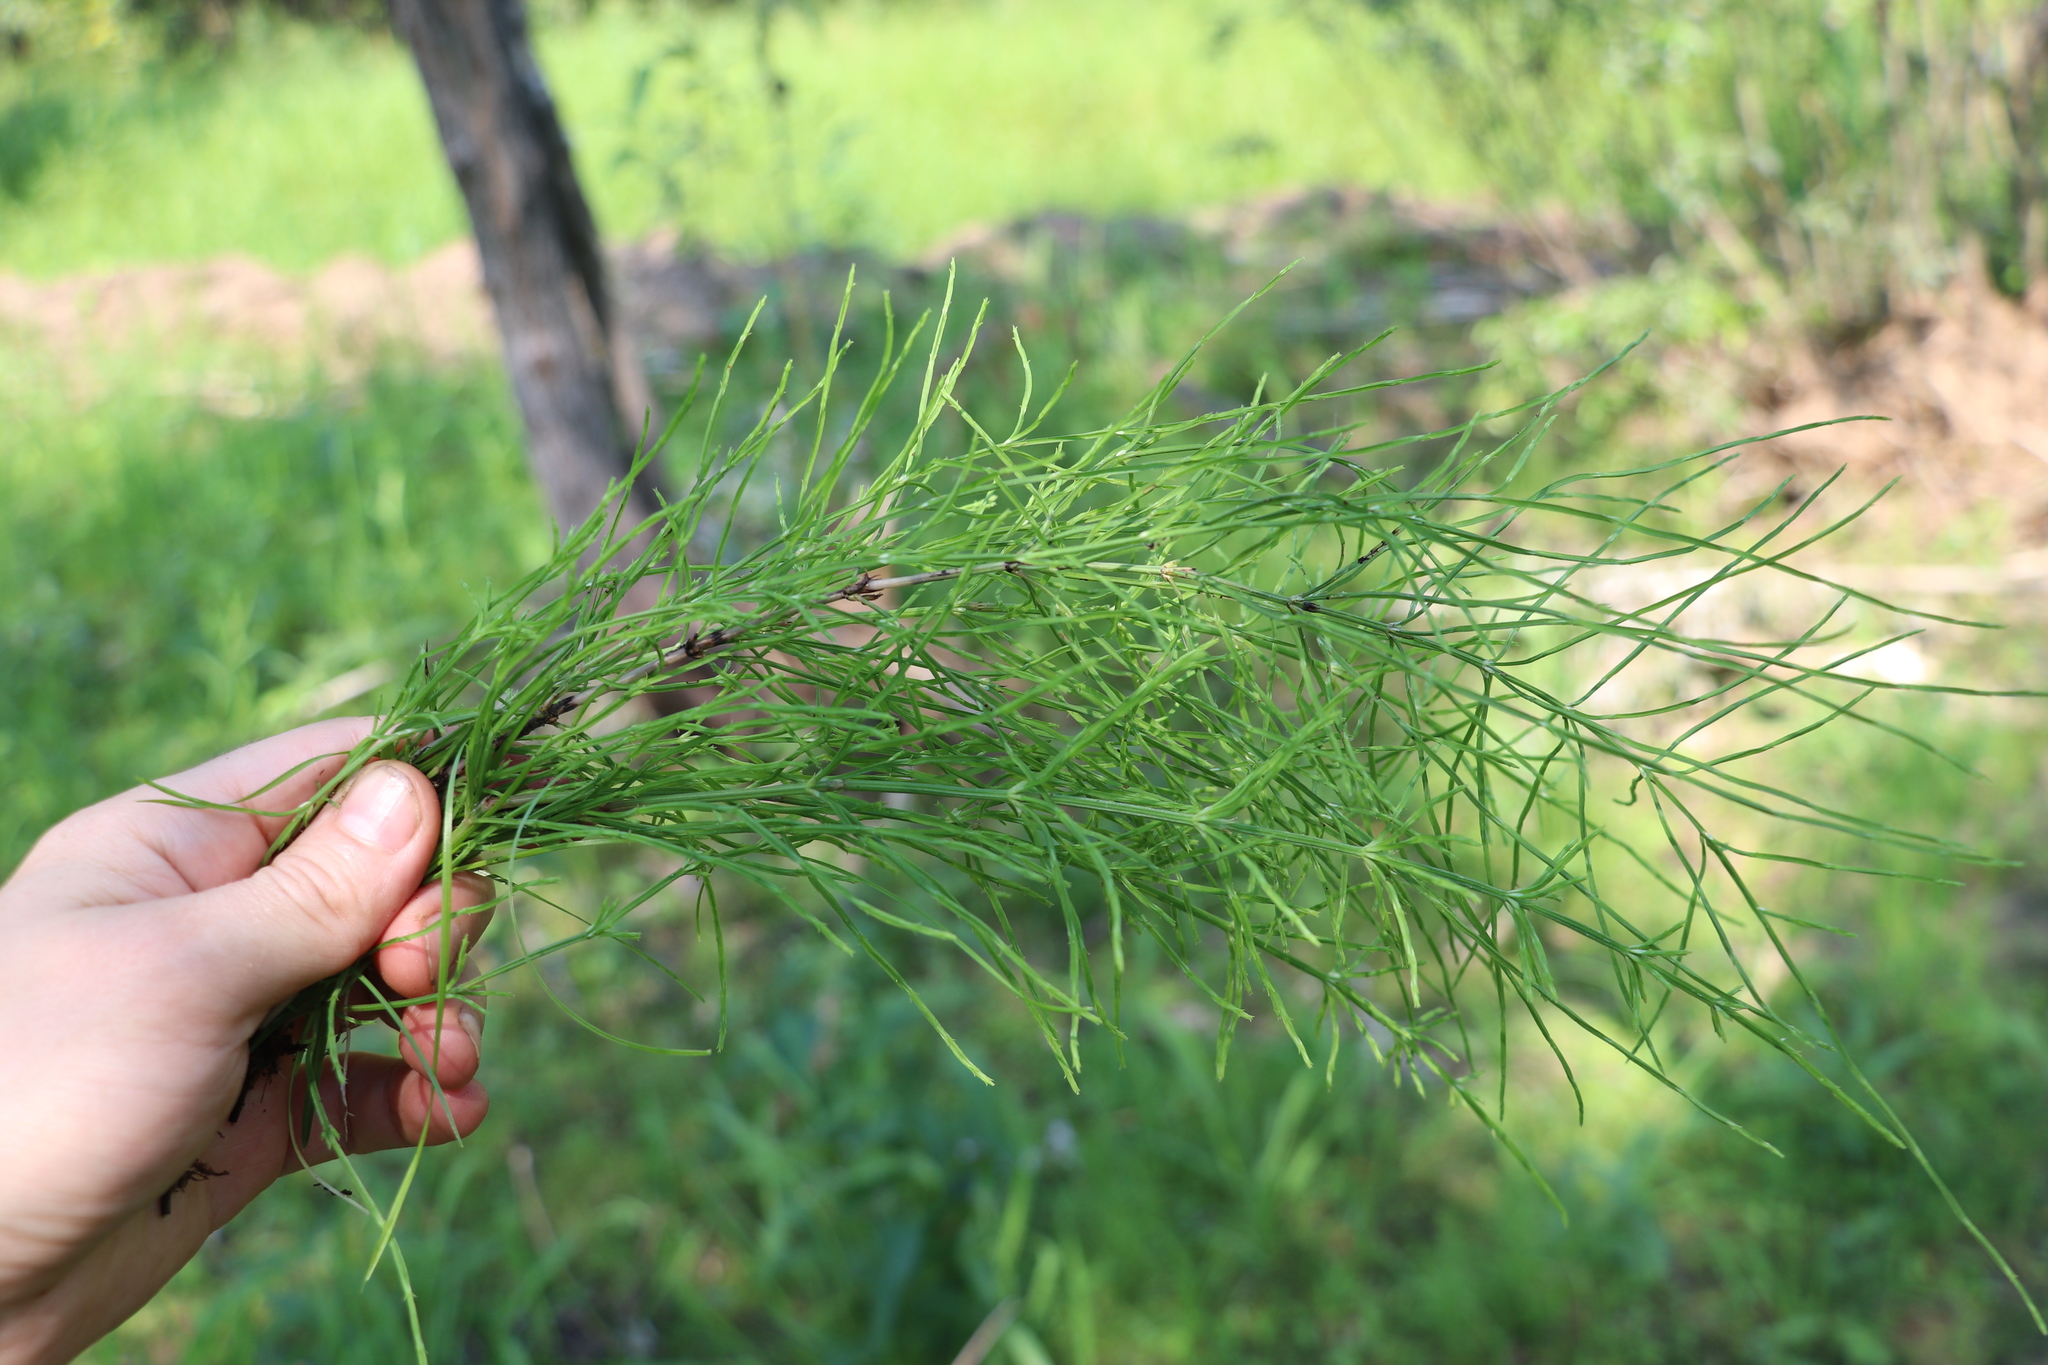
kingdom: Plantae
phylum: Tracheophyta
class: Polypodiopsida
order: Equisetales
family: Equisetaceae
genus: Equisetum
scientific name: Equisetum arvense
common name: Field horsetail
